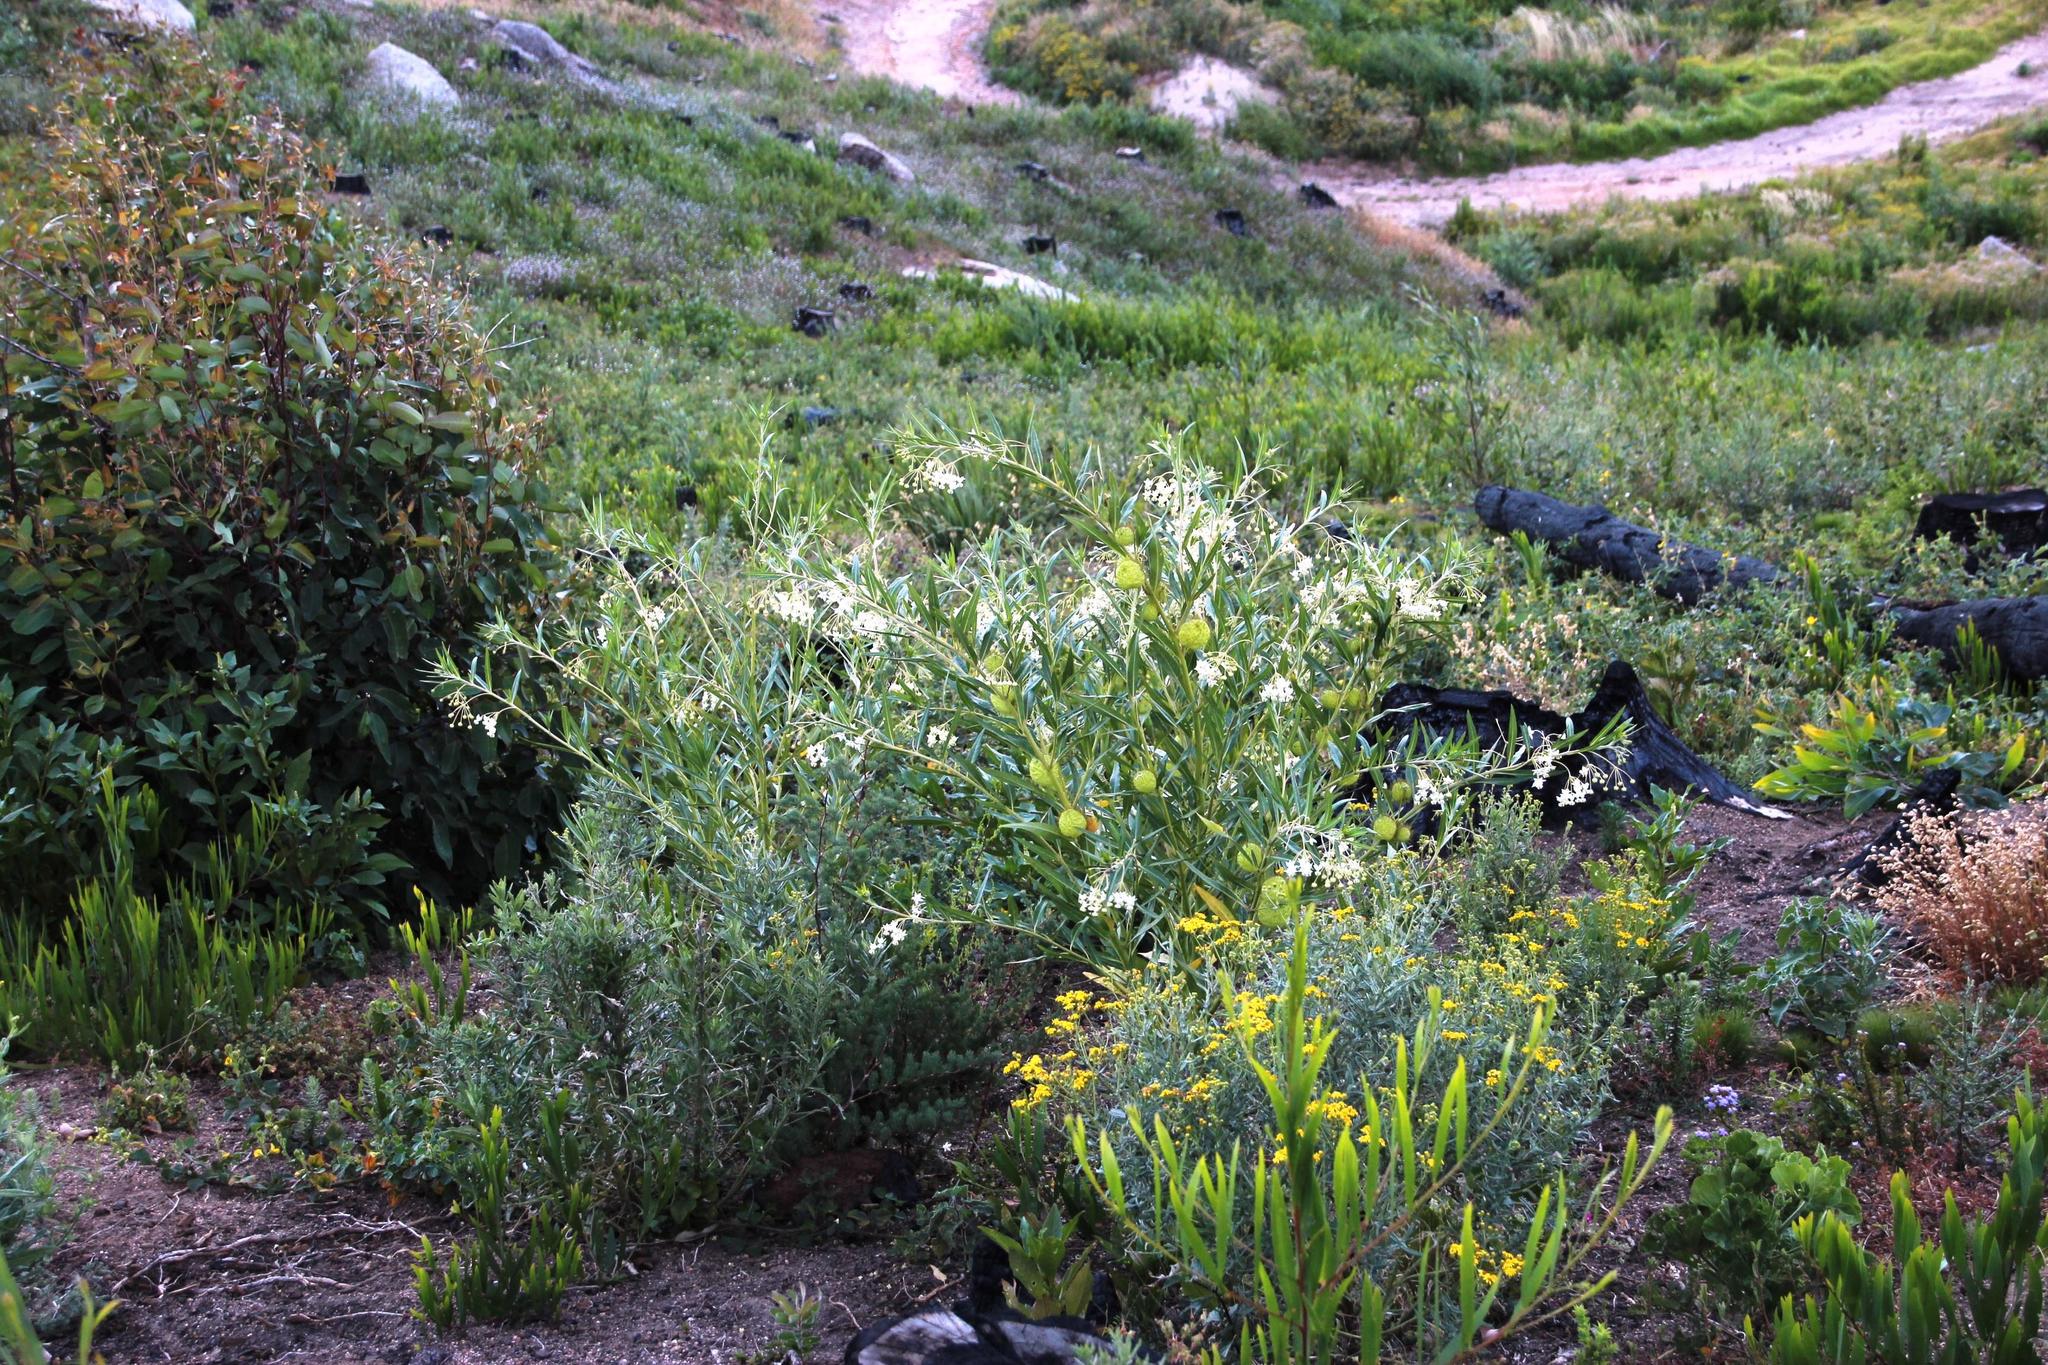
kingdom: Plantae
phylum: Tracheophyta
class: Magnoliopsida
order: Gentianales
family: Apocynaceae
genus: Gomphocarpus
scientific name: Gomphocarpus fruticosus
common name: Milkweed
